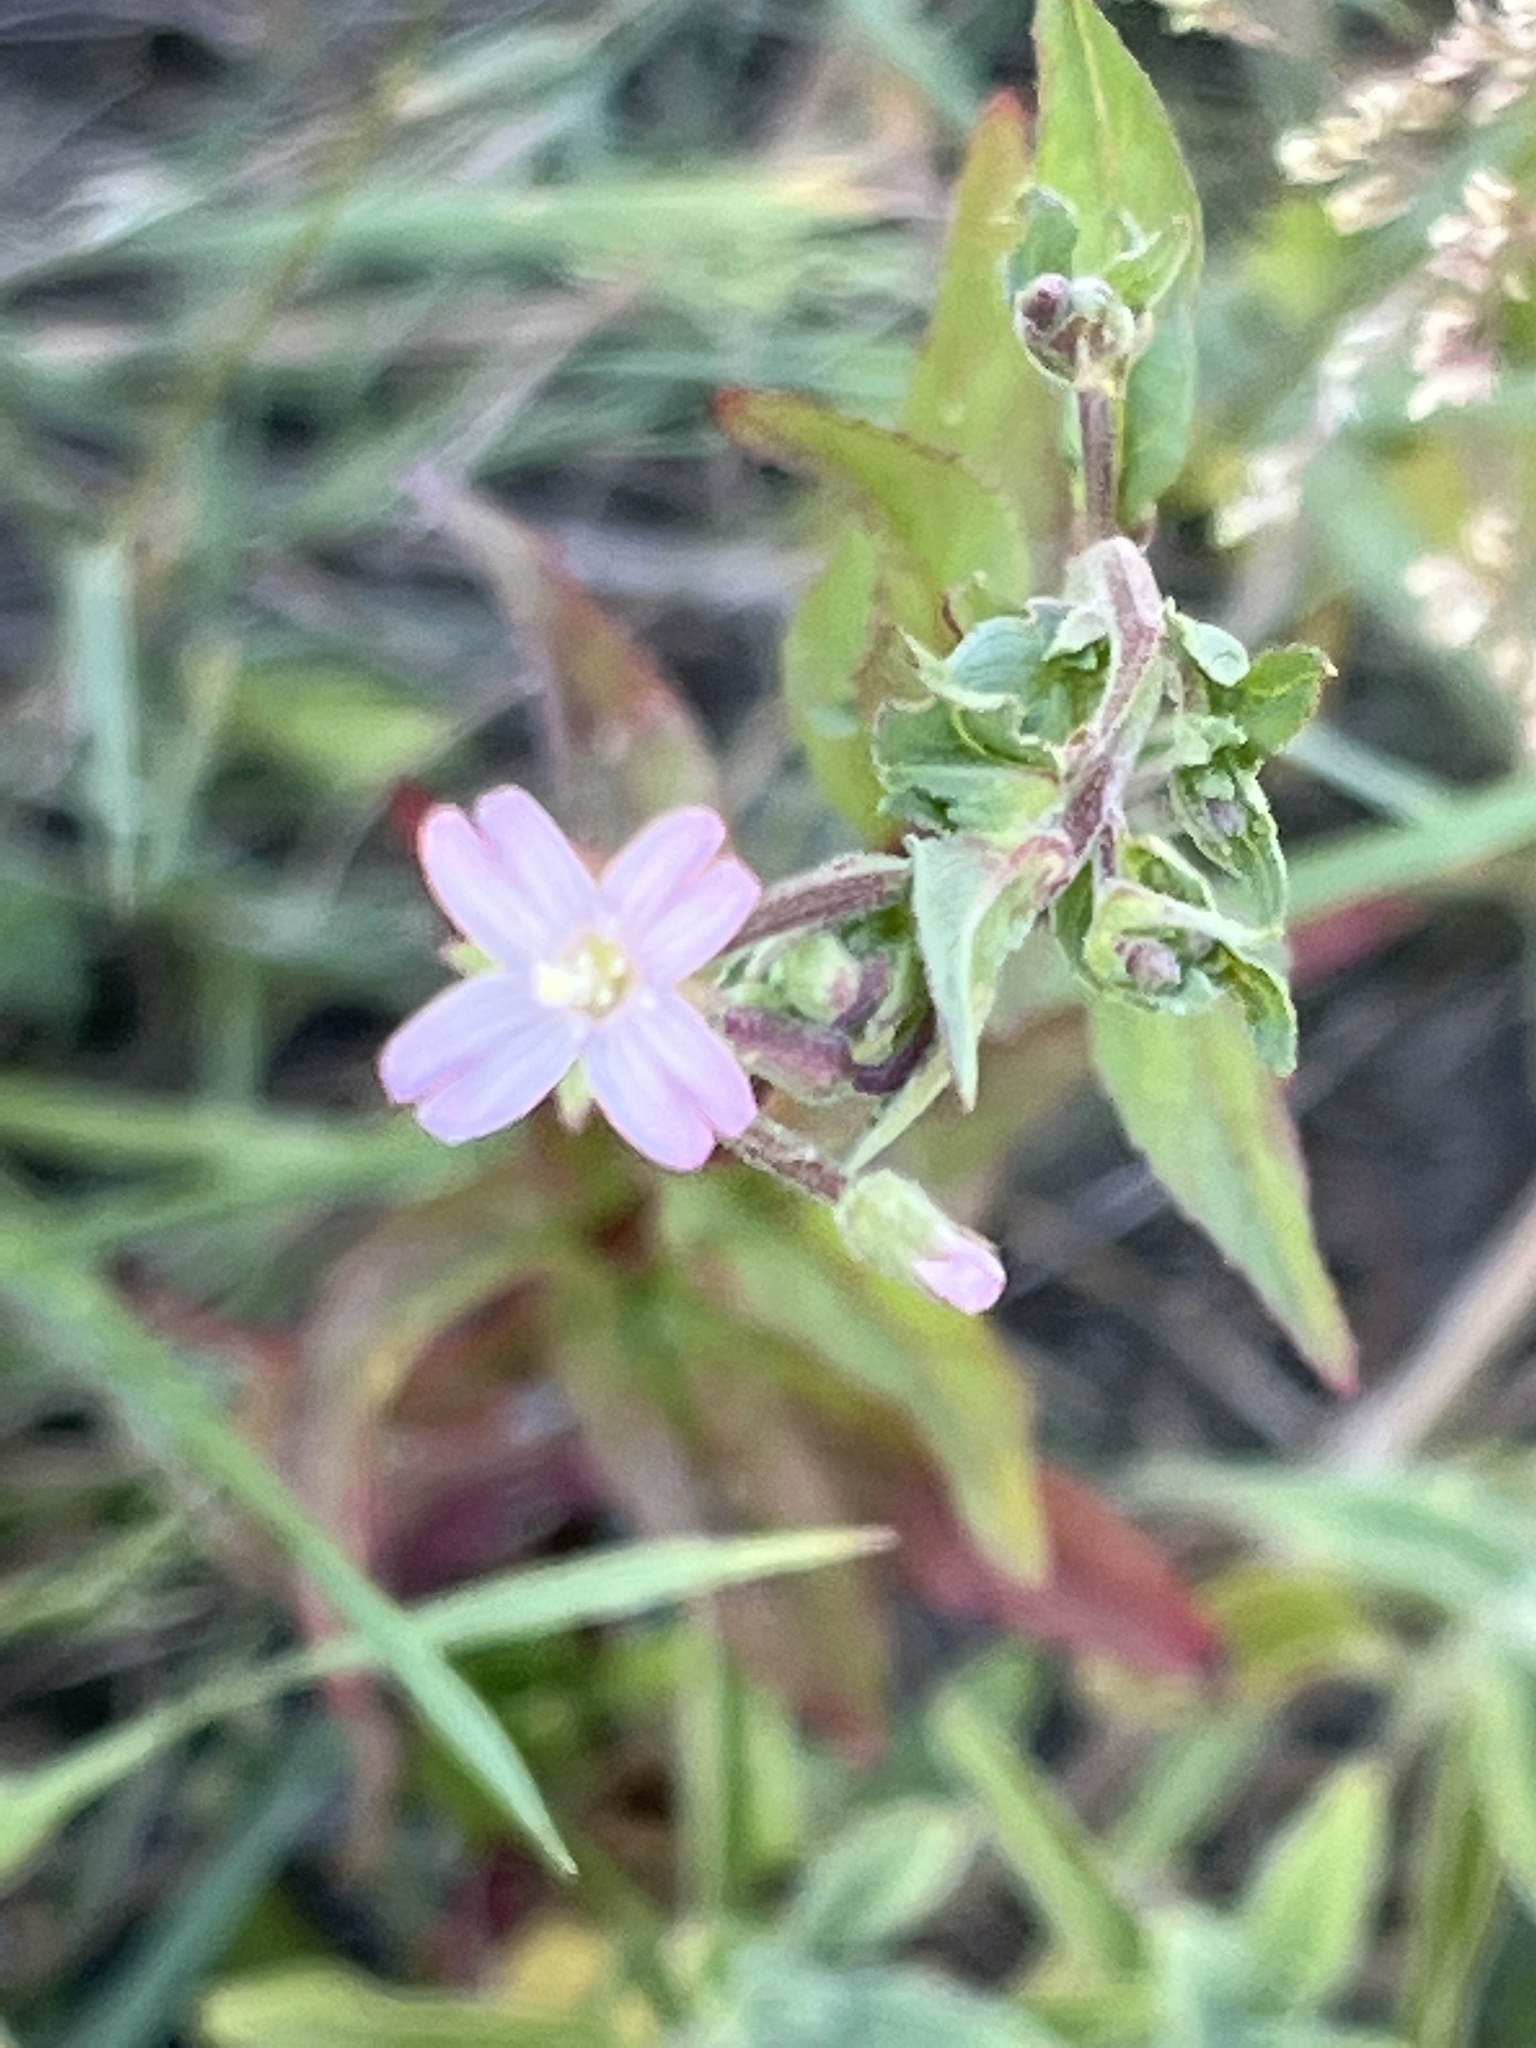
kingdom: Plantae
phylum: Tracheophyta
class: Magnoliopsida
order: Myrtales
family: Onagraceae
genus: Epilobium
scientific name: Epilobium ciliatum
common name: American willowherb
